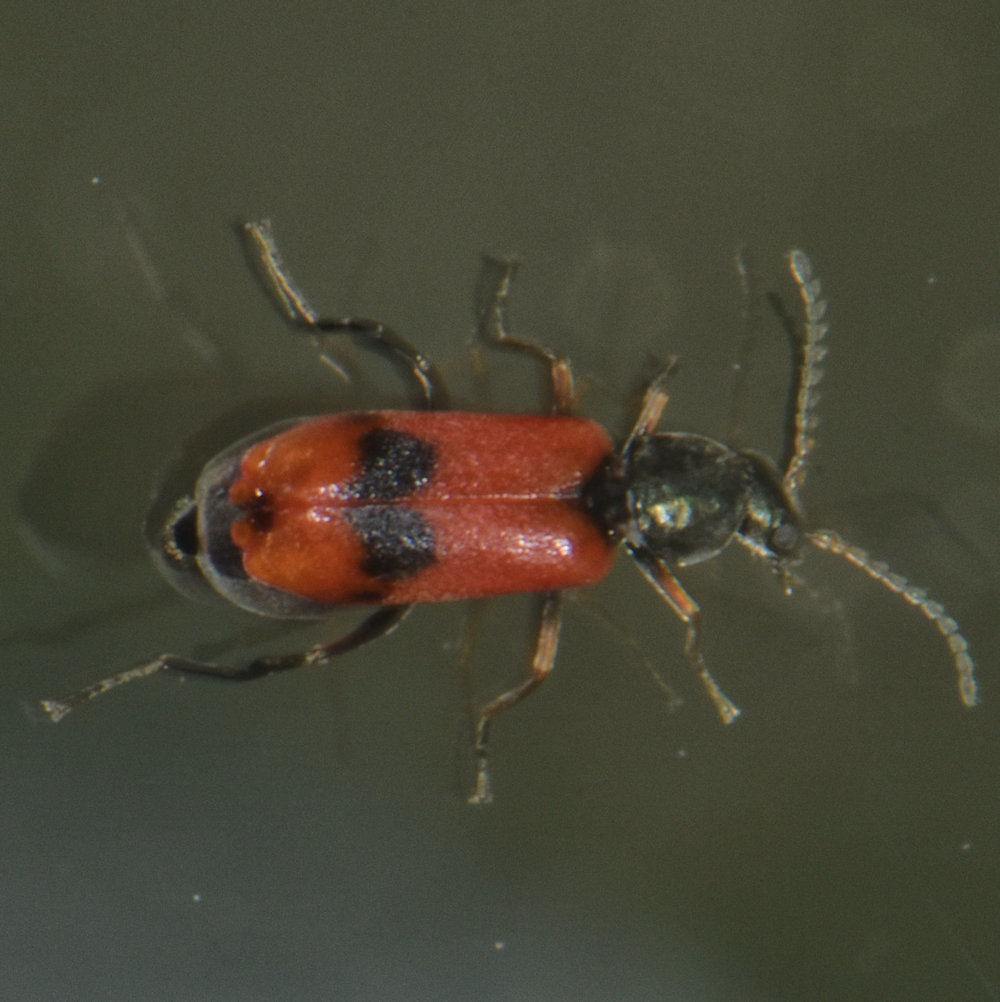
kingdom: Animalia
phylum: Arthropoda
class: Insecta
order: Coleoptera
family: Melyridae
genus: Anthocomus
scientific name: Anthocomus equestris
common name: Black-banded soft-winged flower beetle
